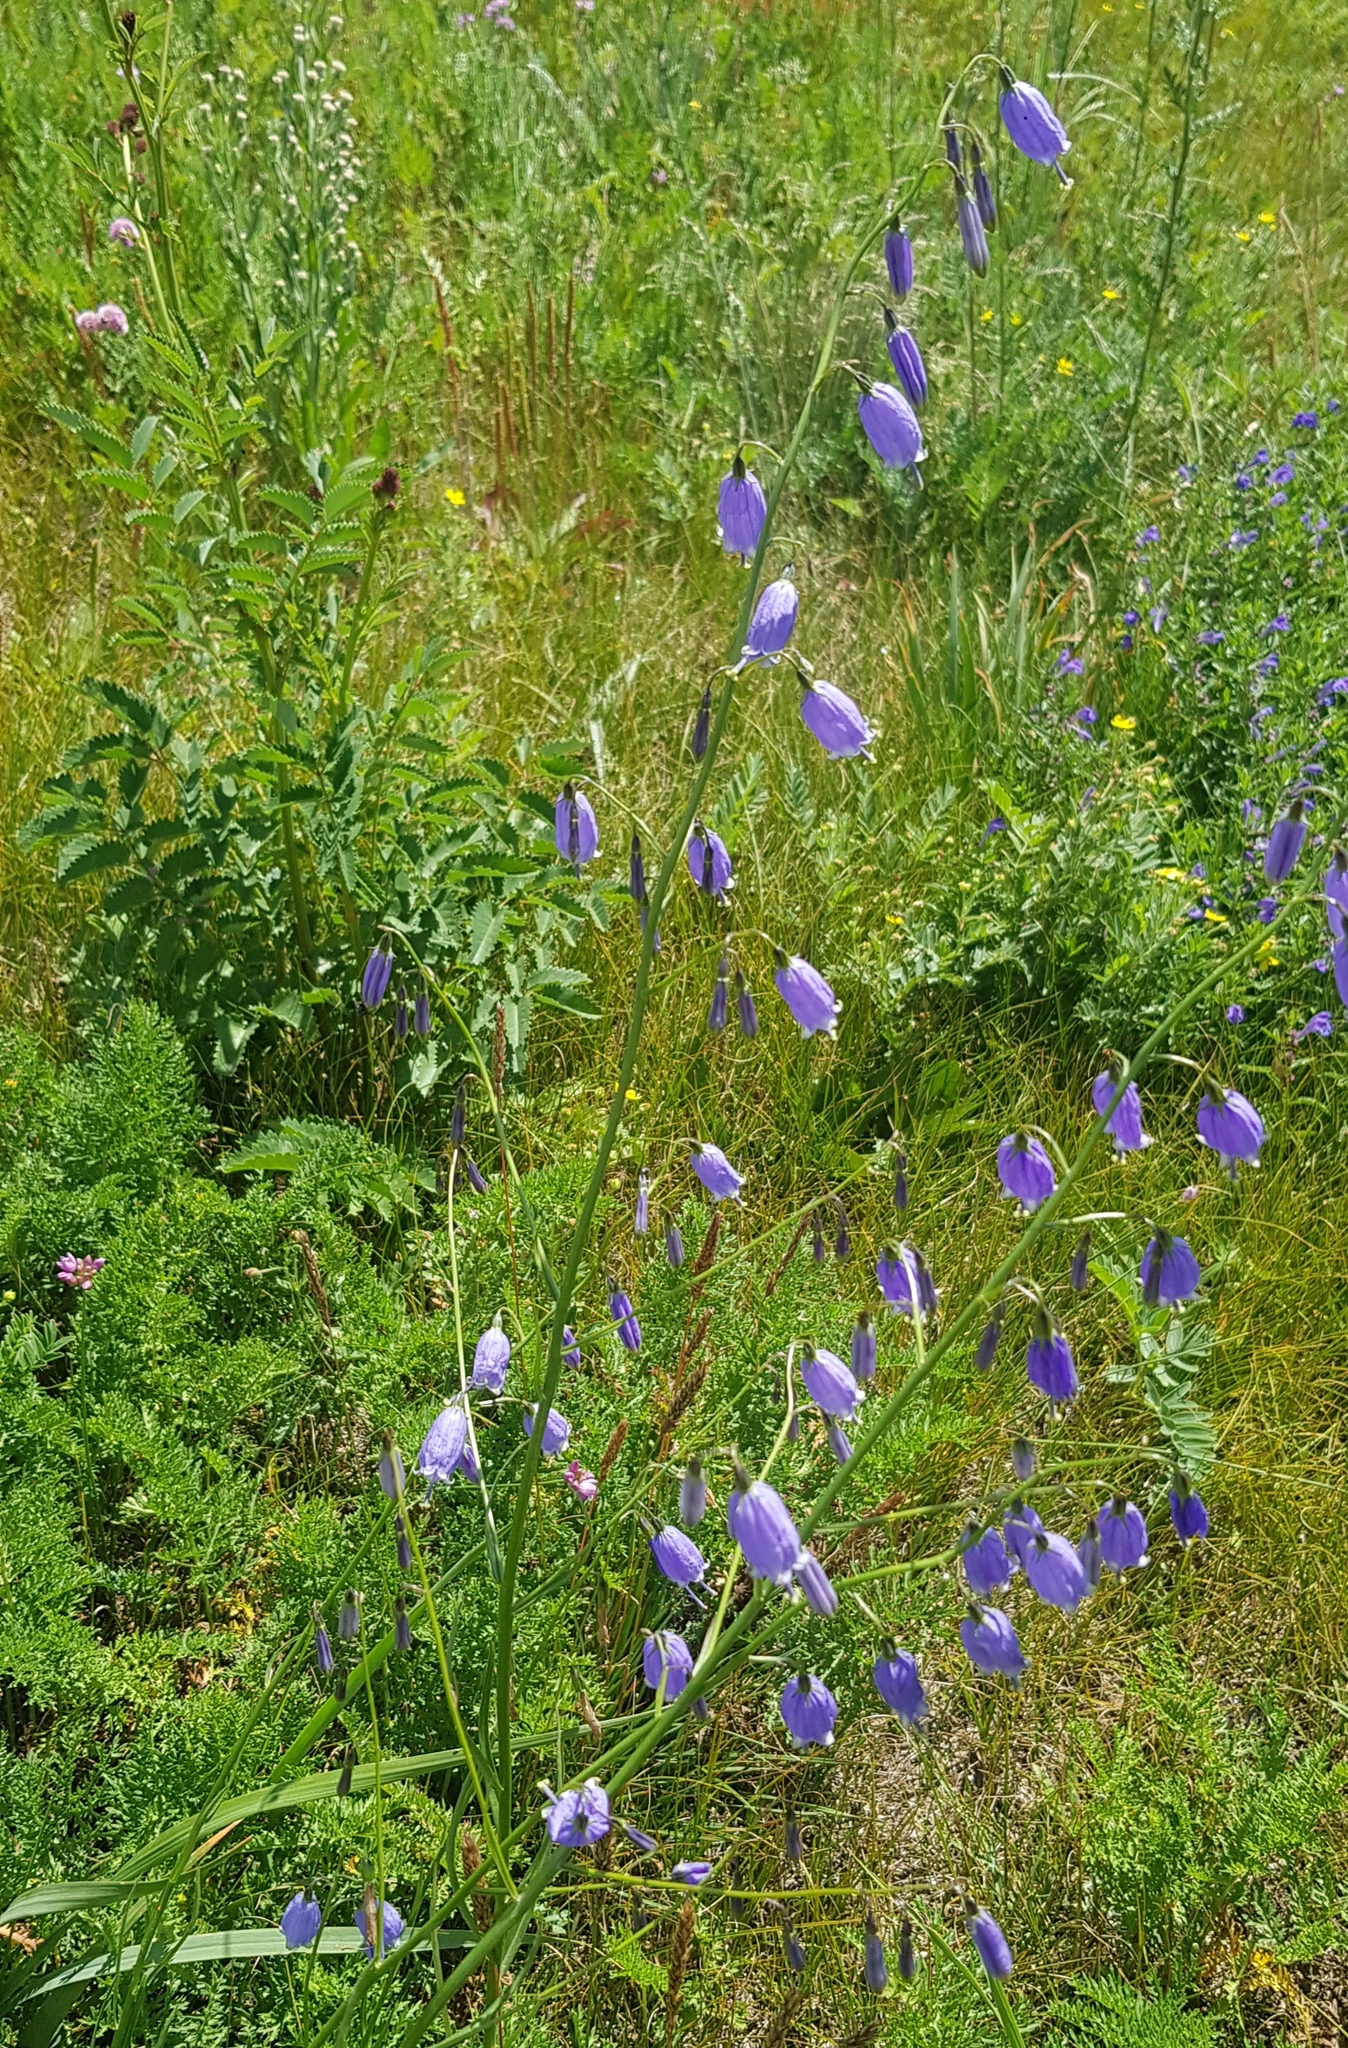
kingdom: Plantae
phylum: Tracheophyta
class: Magnoliopsida
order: Asterales
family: Campanulaceae
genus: Adenophora
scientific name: Adenophora stenanthina
